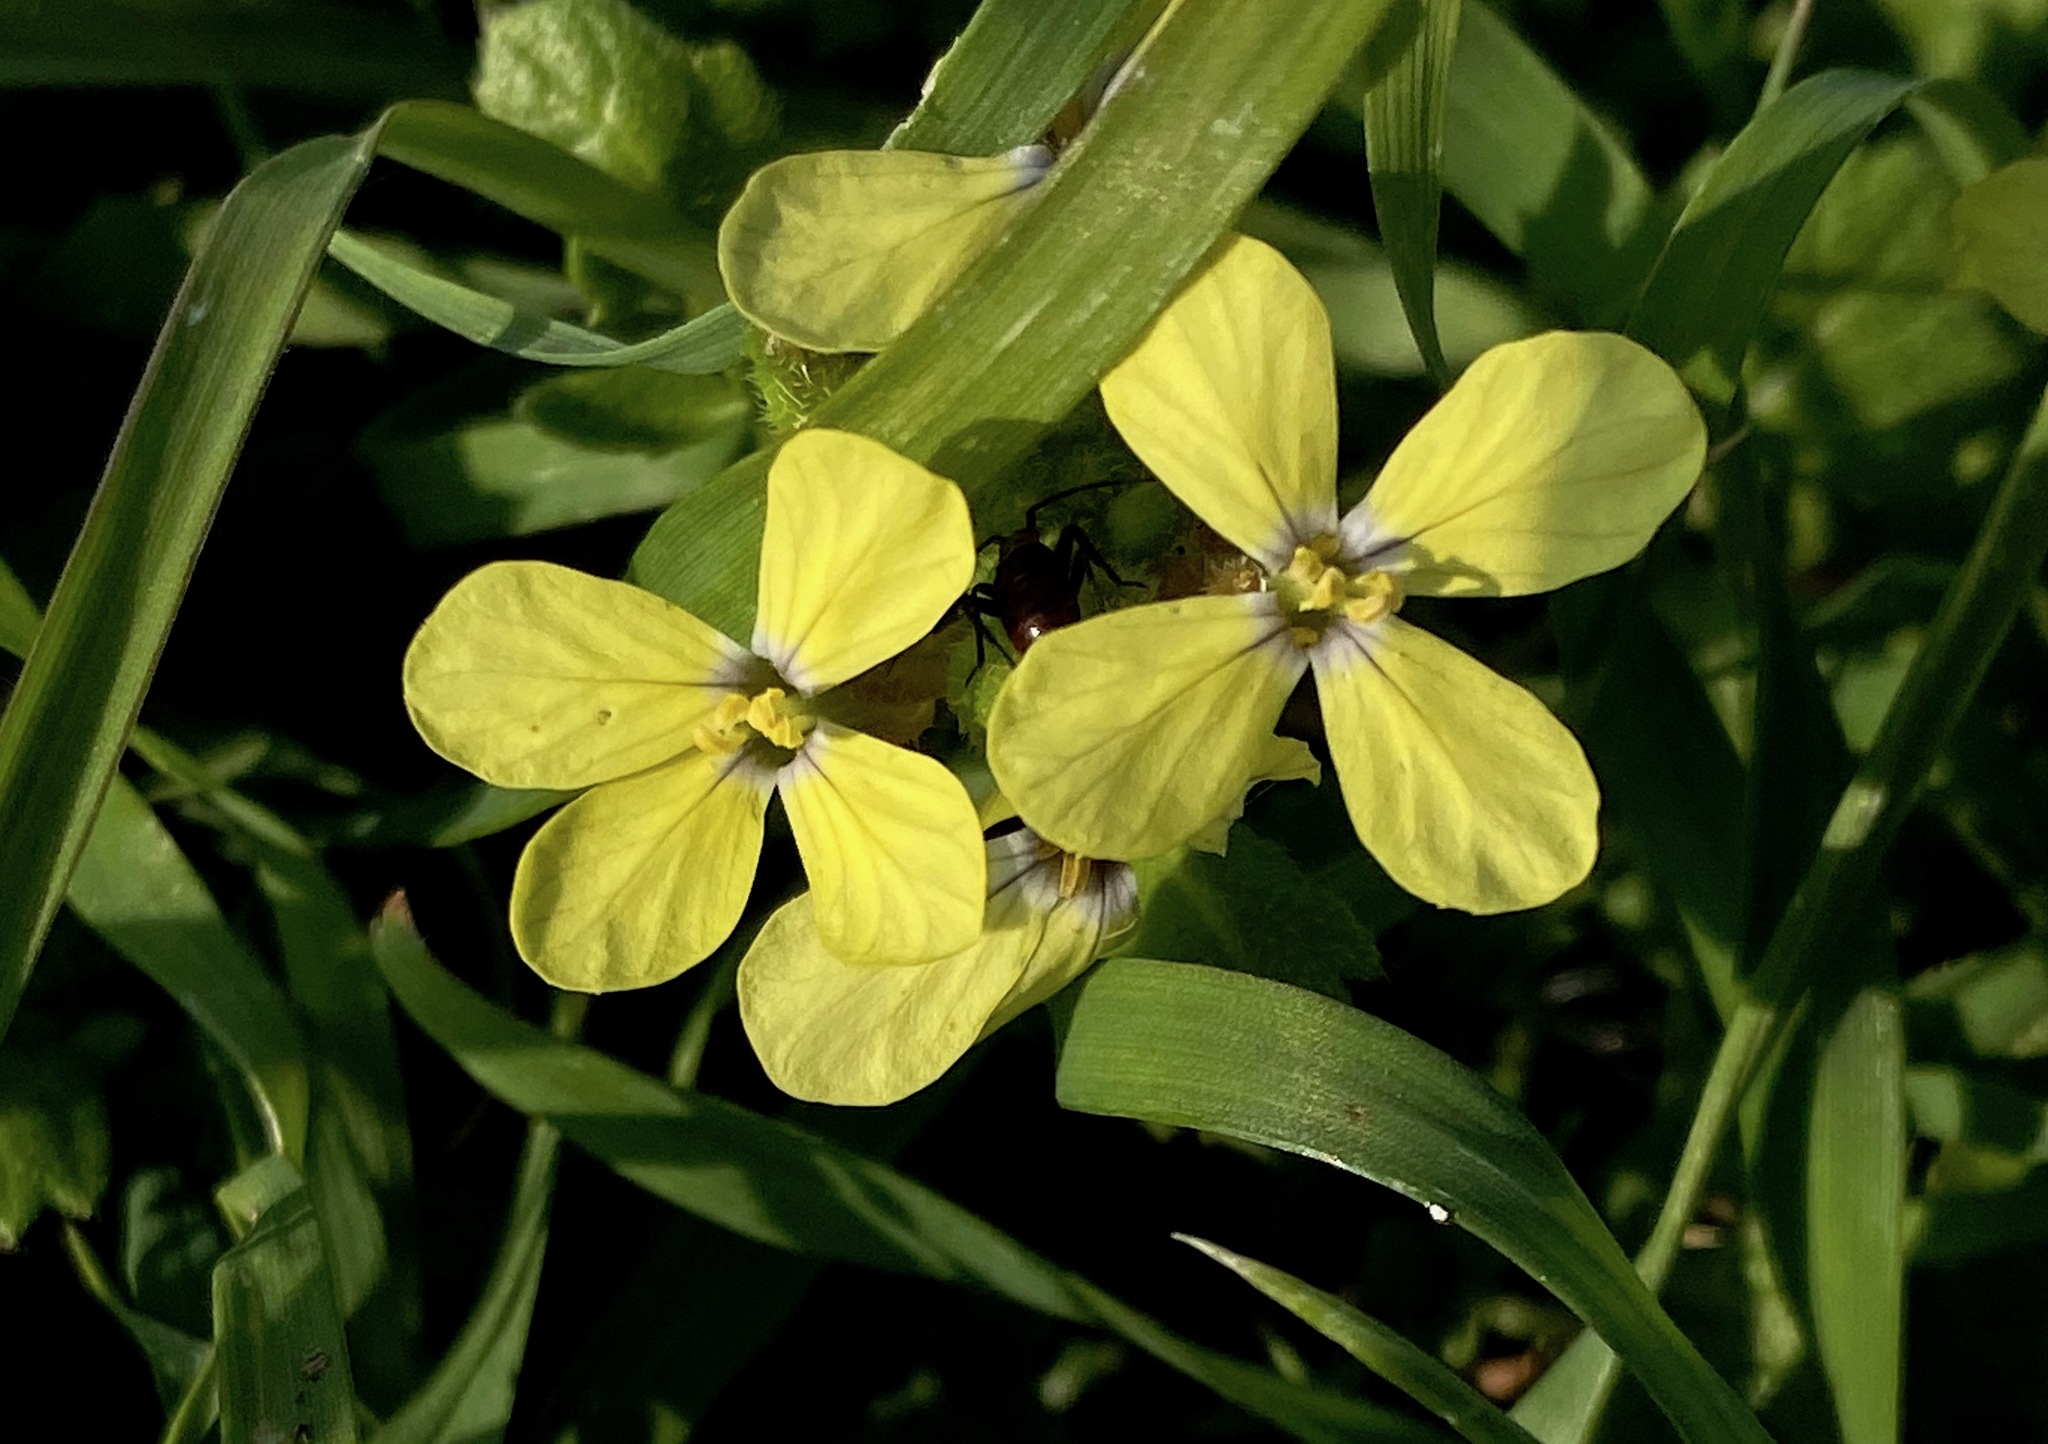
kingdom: Plantae
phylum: Tracheophyta
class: Magnoliopsida
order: Brassicales
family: Brassicaceae
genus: Enarthrocarpus
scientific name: Enarthrocarpus arcuatus
